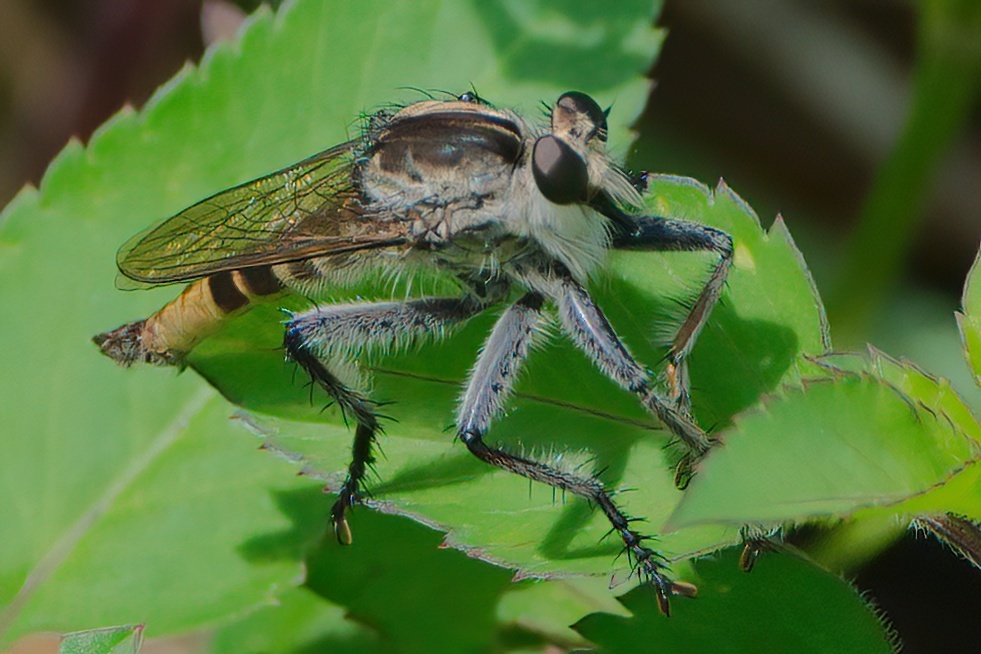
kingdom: Animalia
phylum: Arthropoda
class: Insecta
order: Diptera
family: Asilidae
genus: Triorla
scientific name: Triorla interrupta
